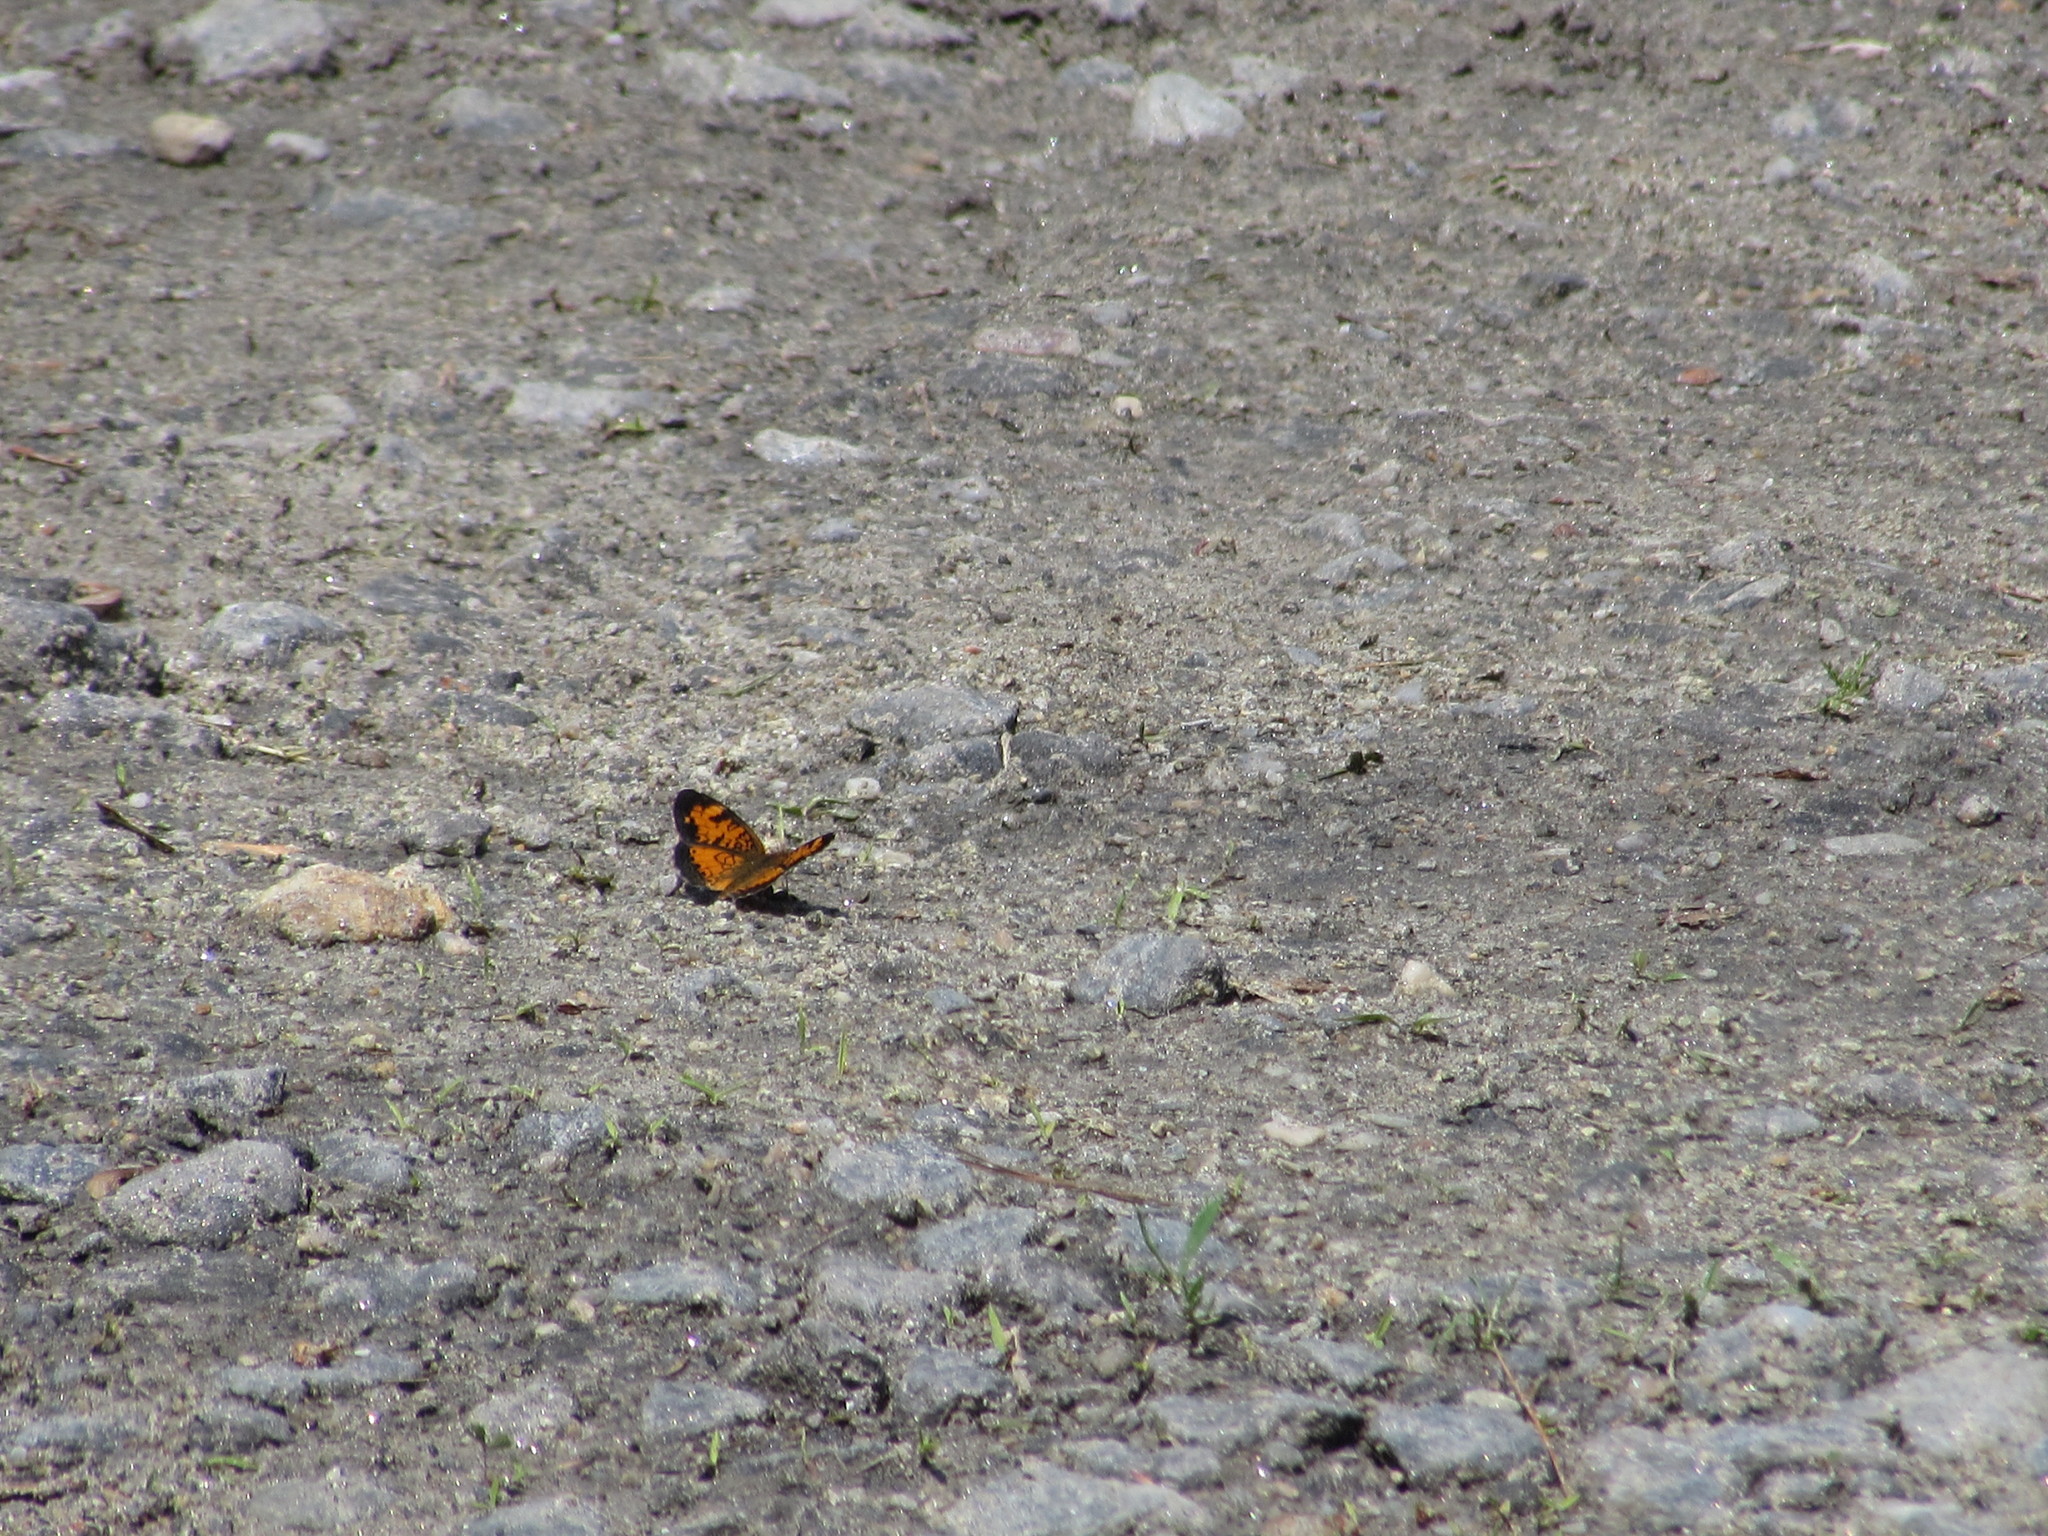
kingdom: Animalia
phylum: Arthropoda
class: Insecta
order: Lepidoptera
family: Nymphalidae
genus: Phyciodes
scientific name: Phyciodes tharos
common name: Pearl crescent
